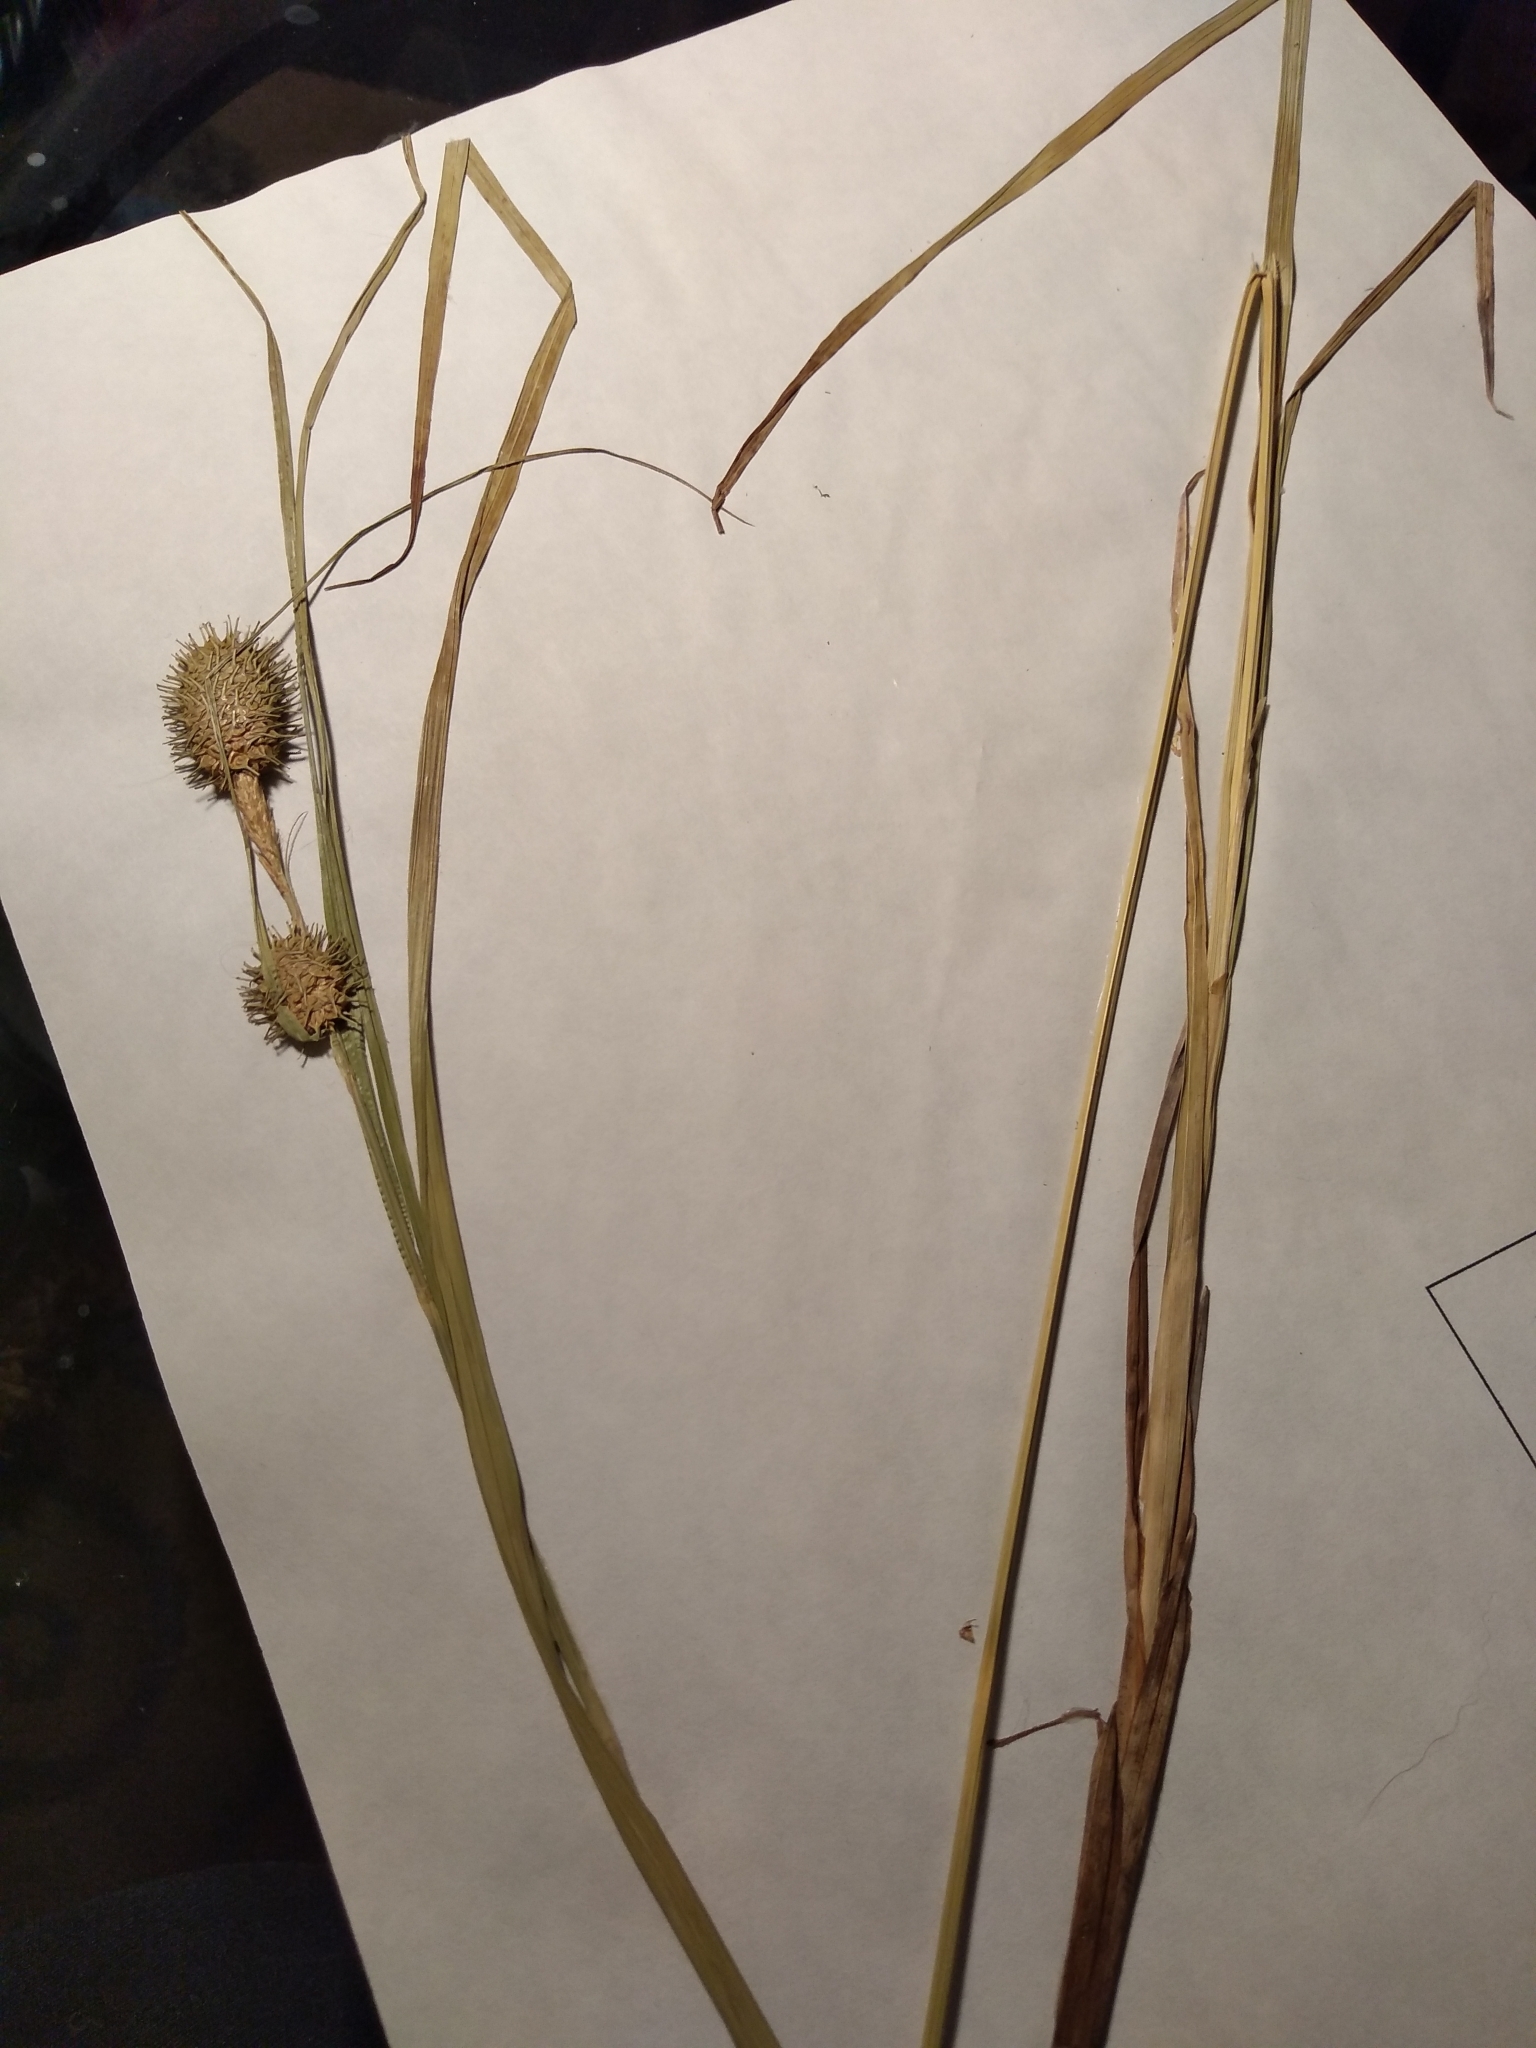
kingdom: Plantae
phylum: Tracheophyta
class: Liliopsida
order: Poales
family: Cyperaceae
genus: Carex
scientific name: Carex squarrosa
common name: Narrow-leaved cattail sedge
